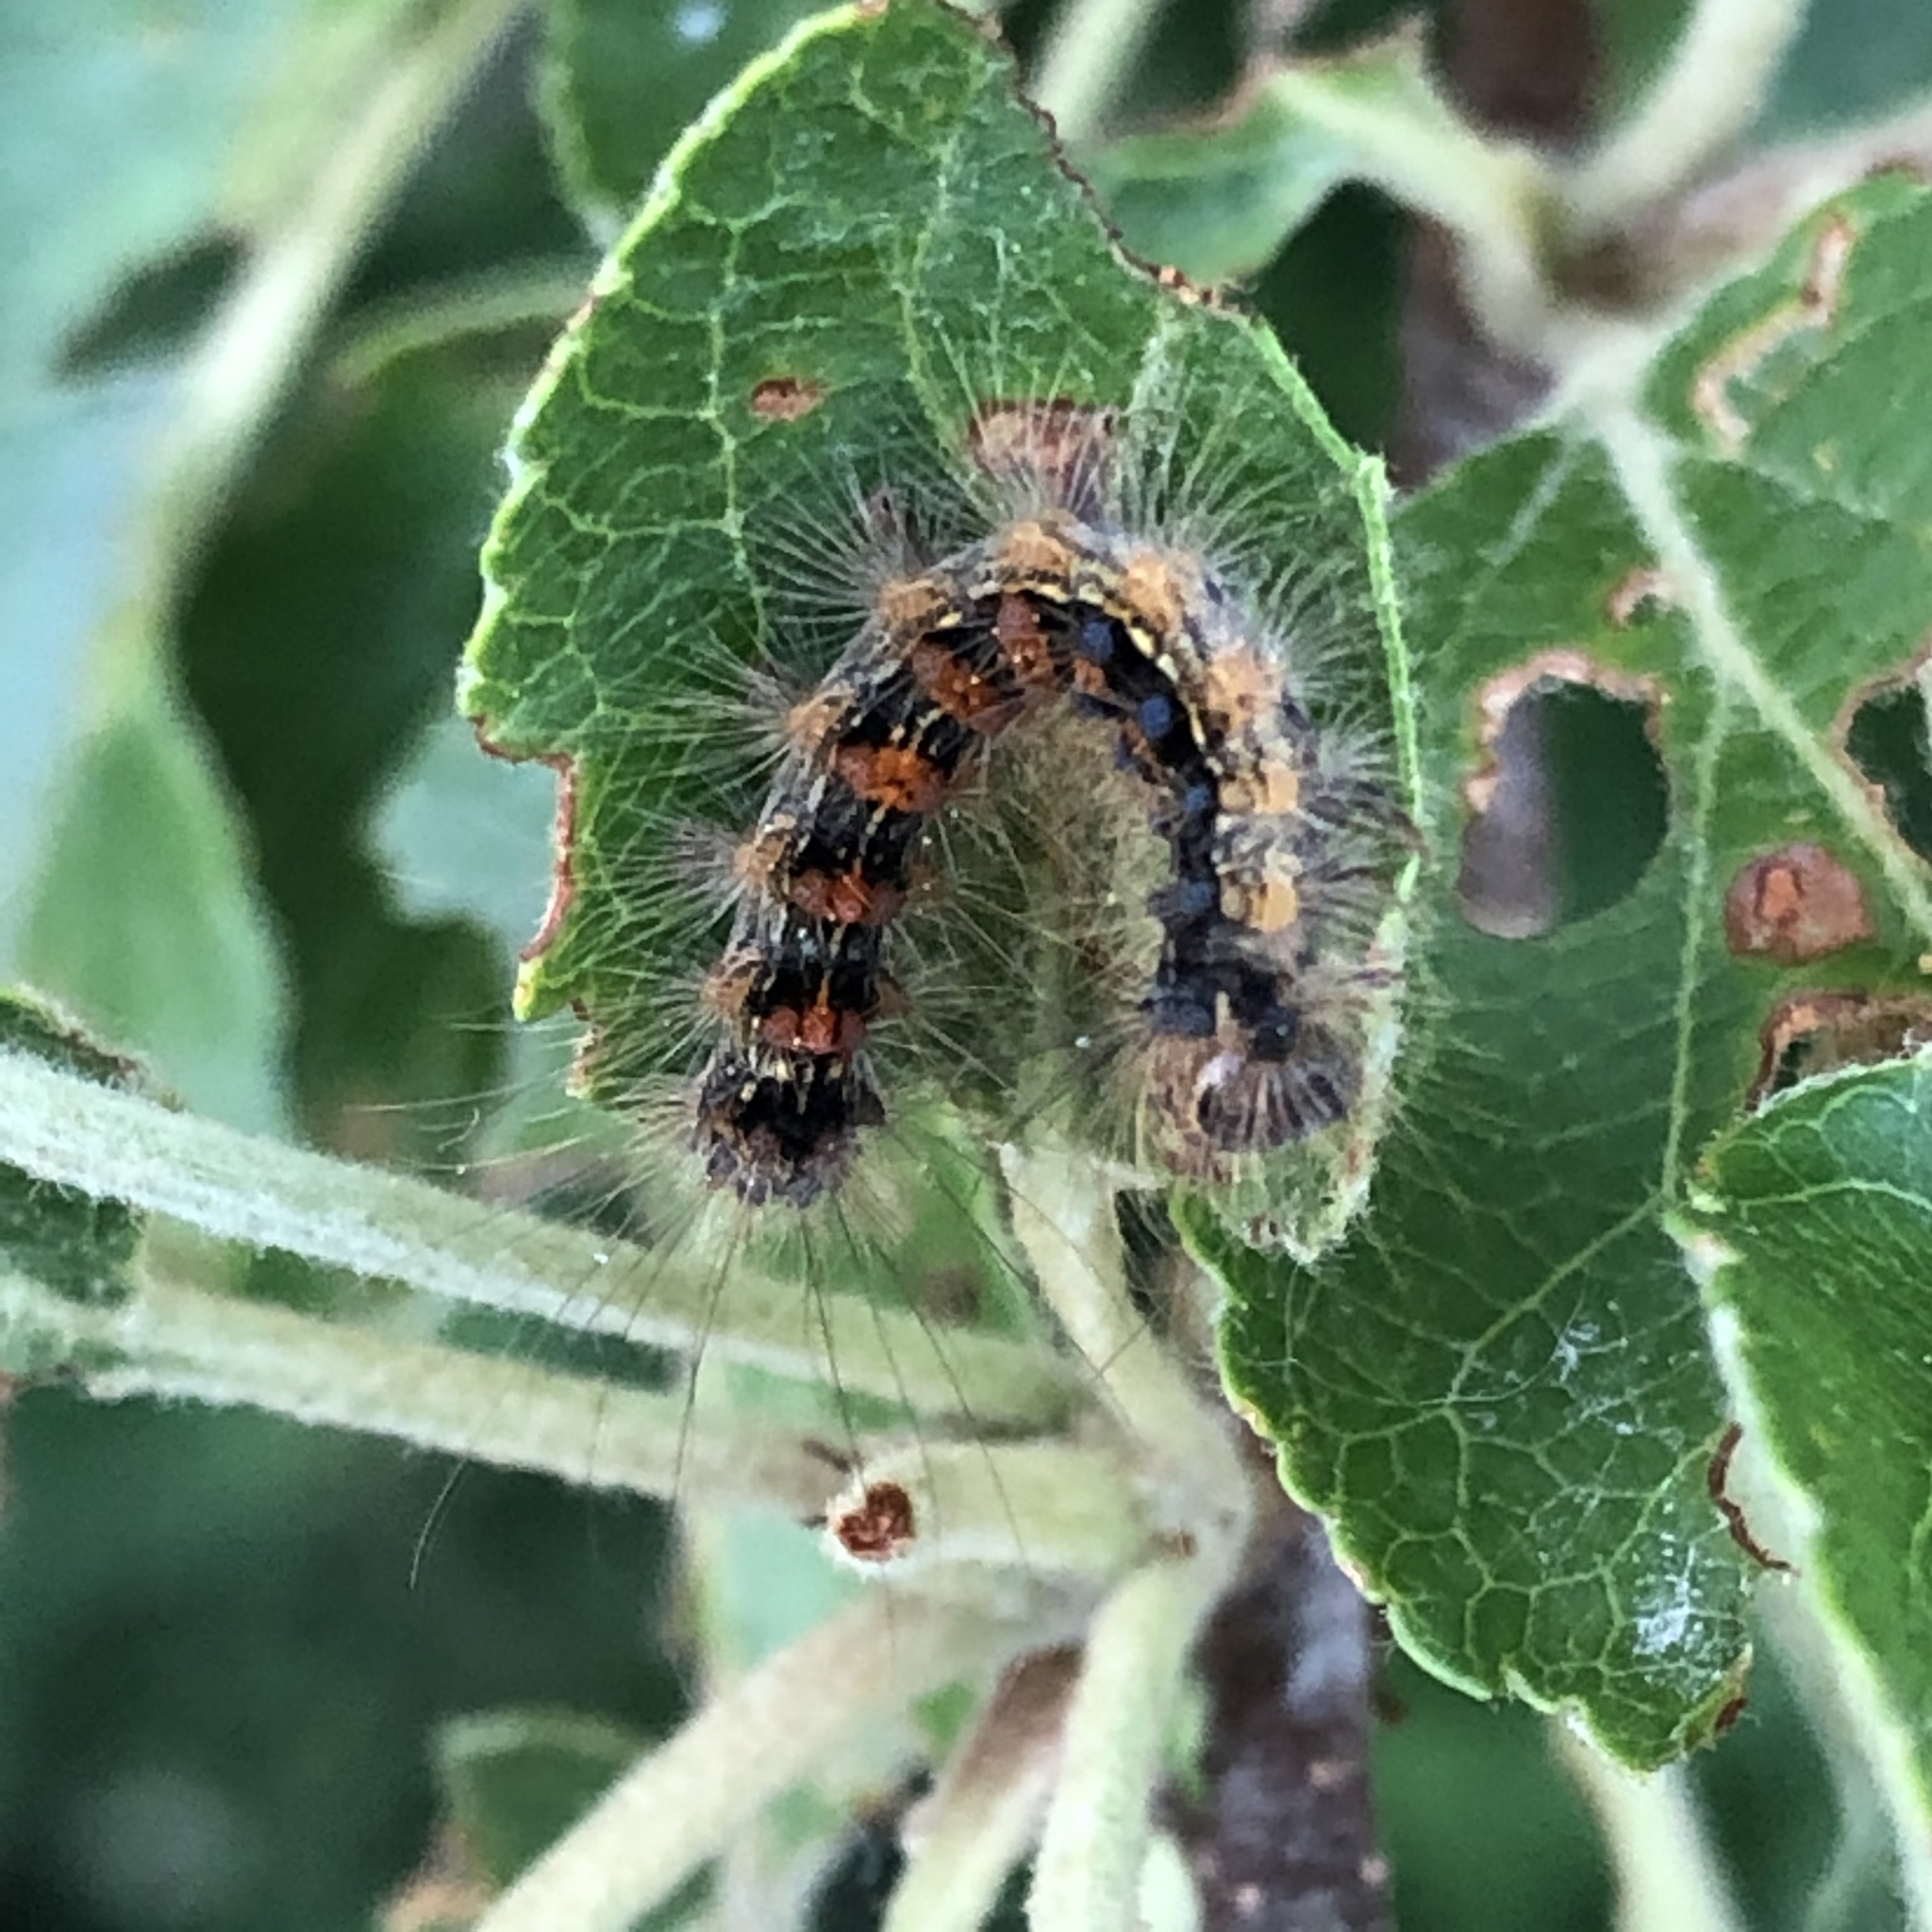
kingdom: Animalia
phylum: Arthropoda
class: Insecta
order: Lepidoptera
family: Erebidae
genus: Lymantria
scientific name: Lymantria dispar
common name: Gypsy moth
